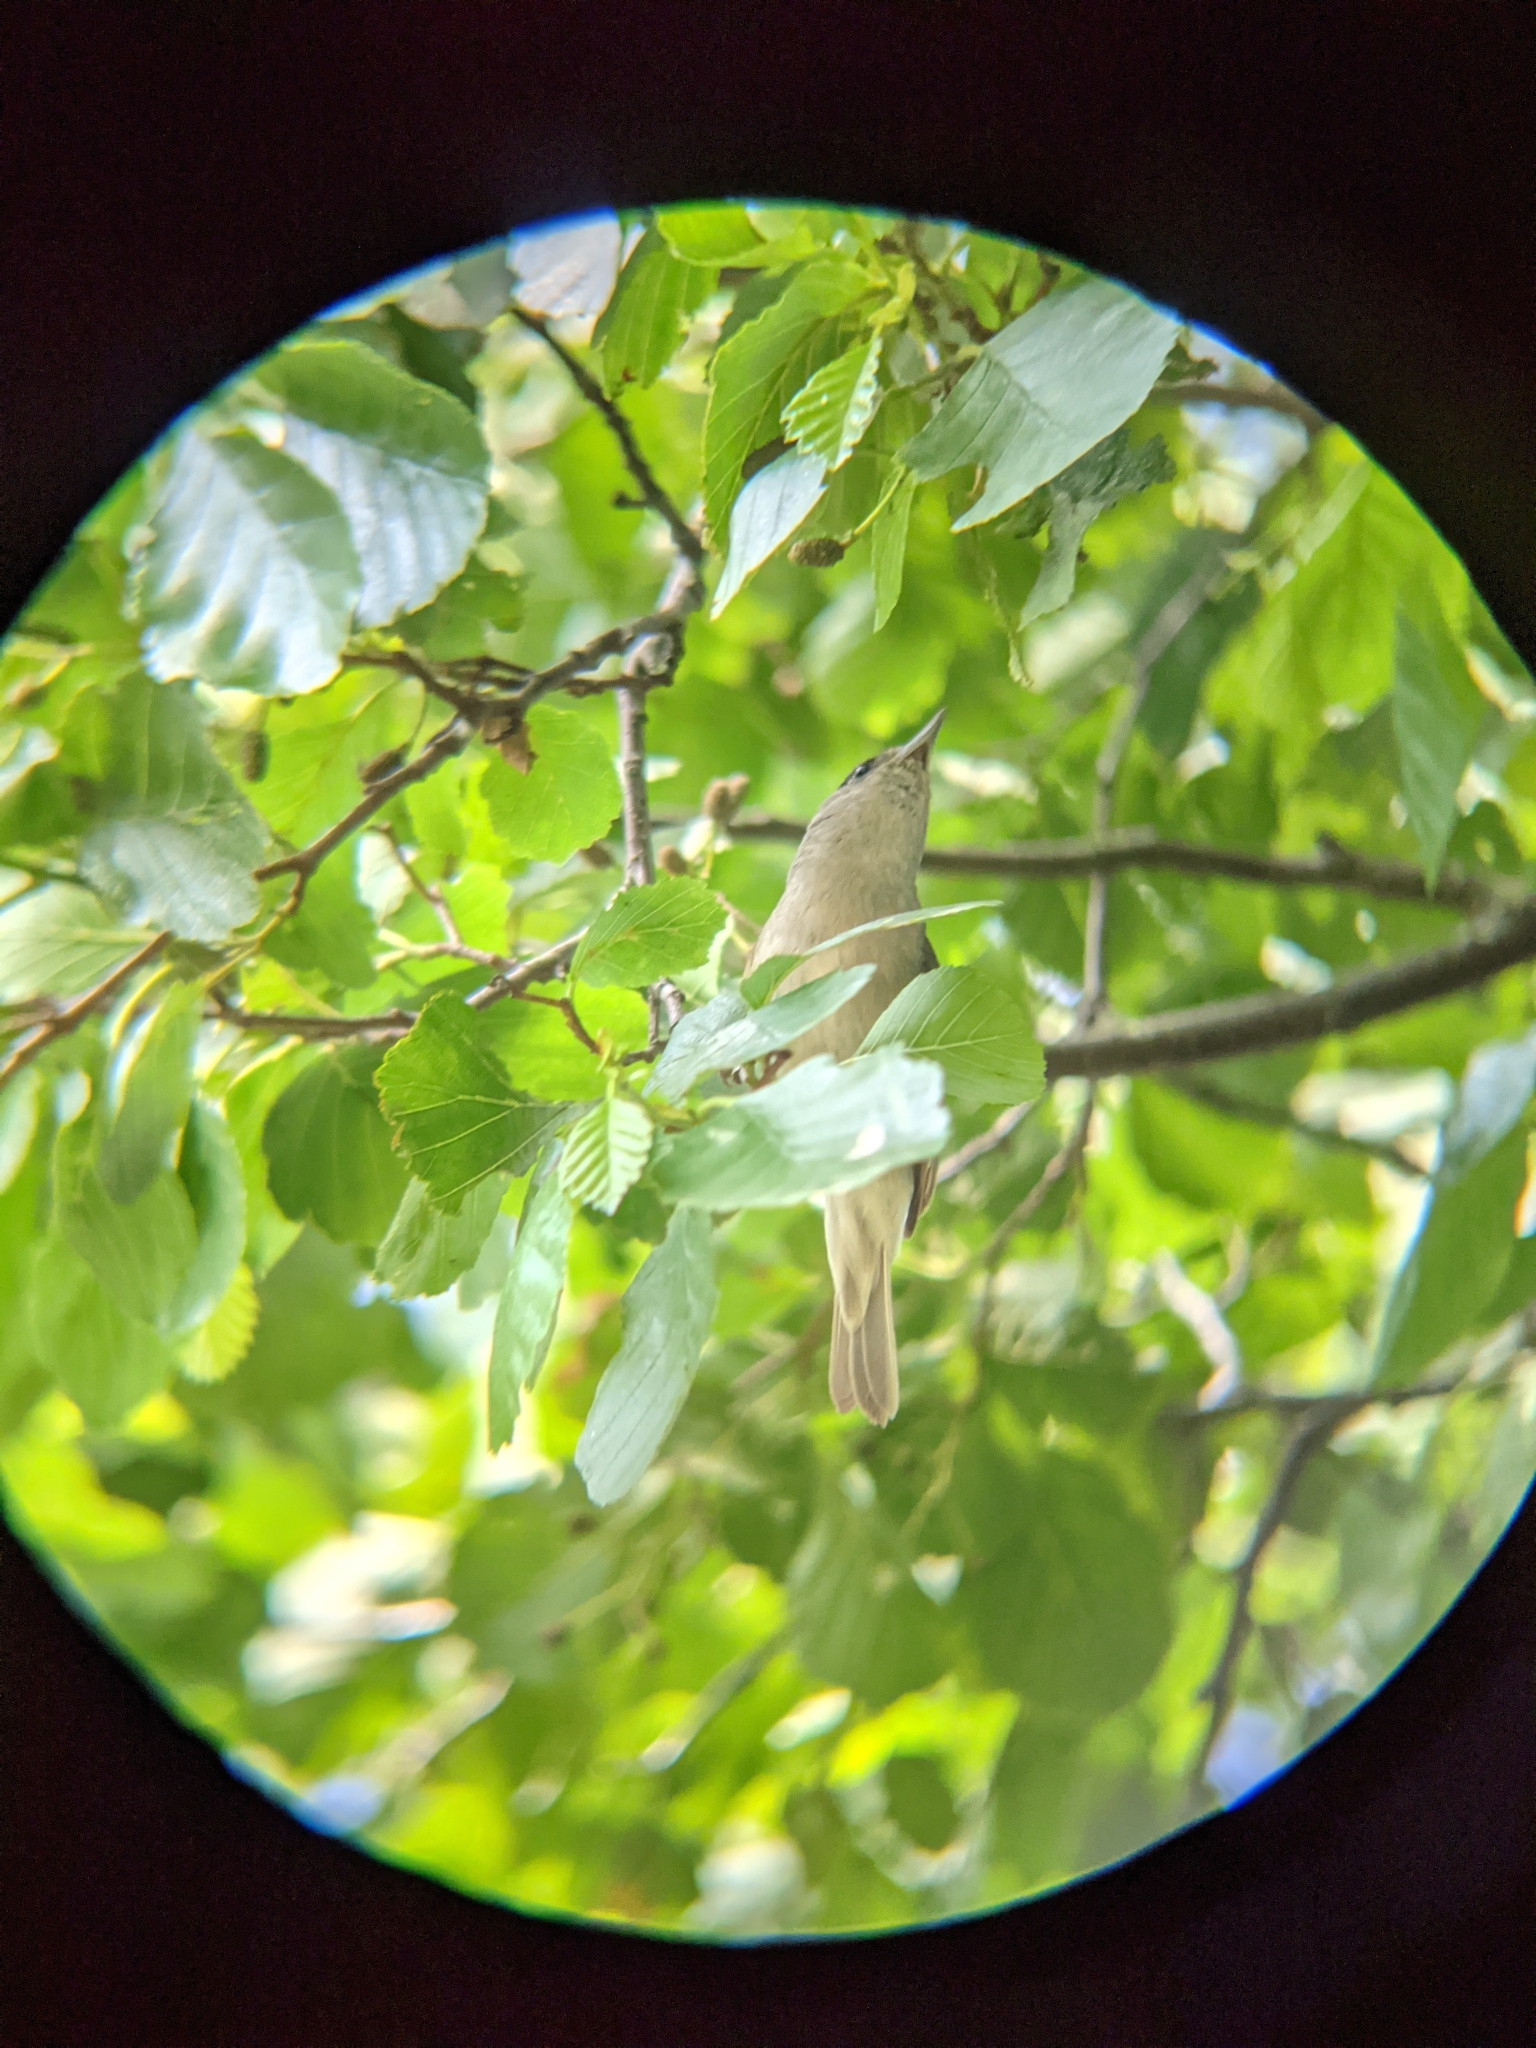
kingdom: Animalia
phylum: Chordata
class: Aves
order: Passeriformes
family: Sylviidae
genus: Sylvia
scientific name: Sylvia atricapilla
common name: Eurasian blackcap
